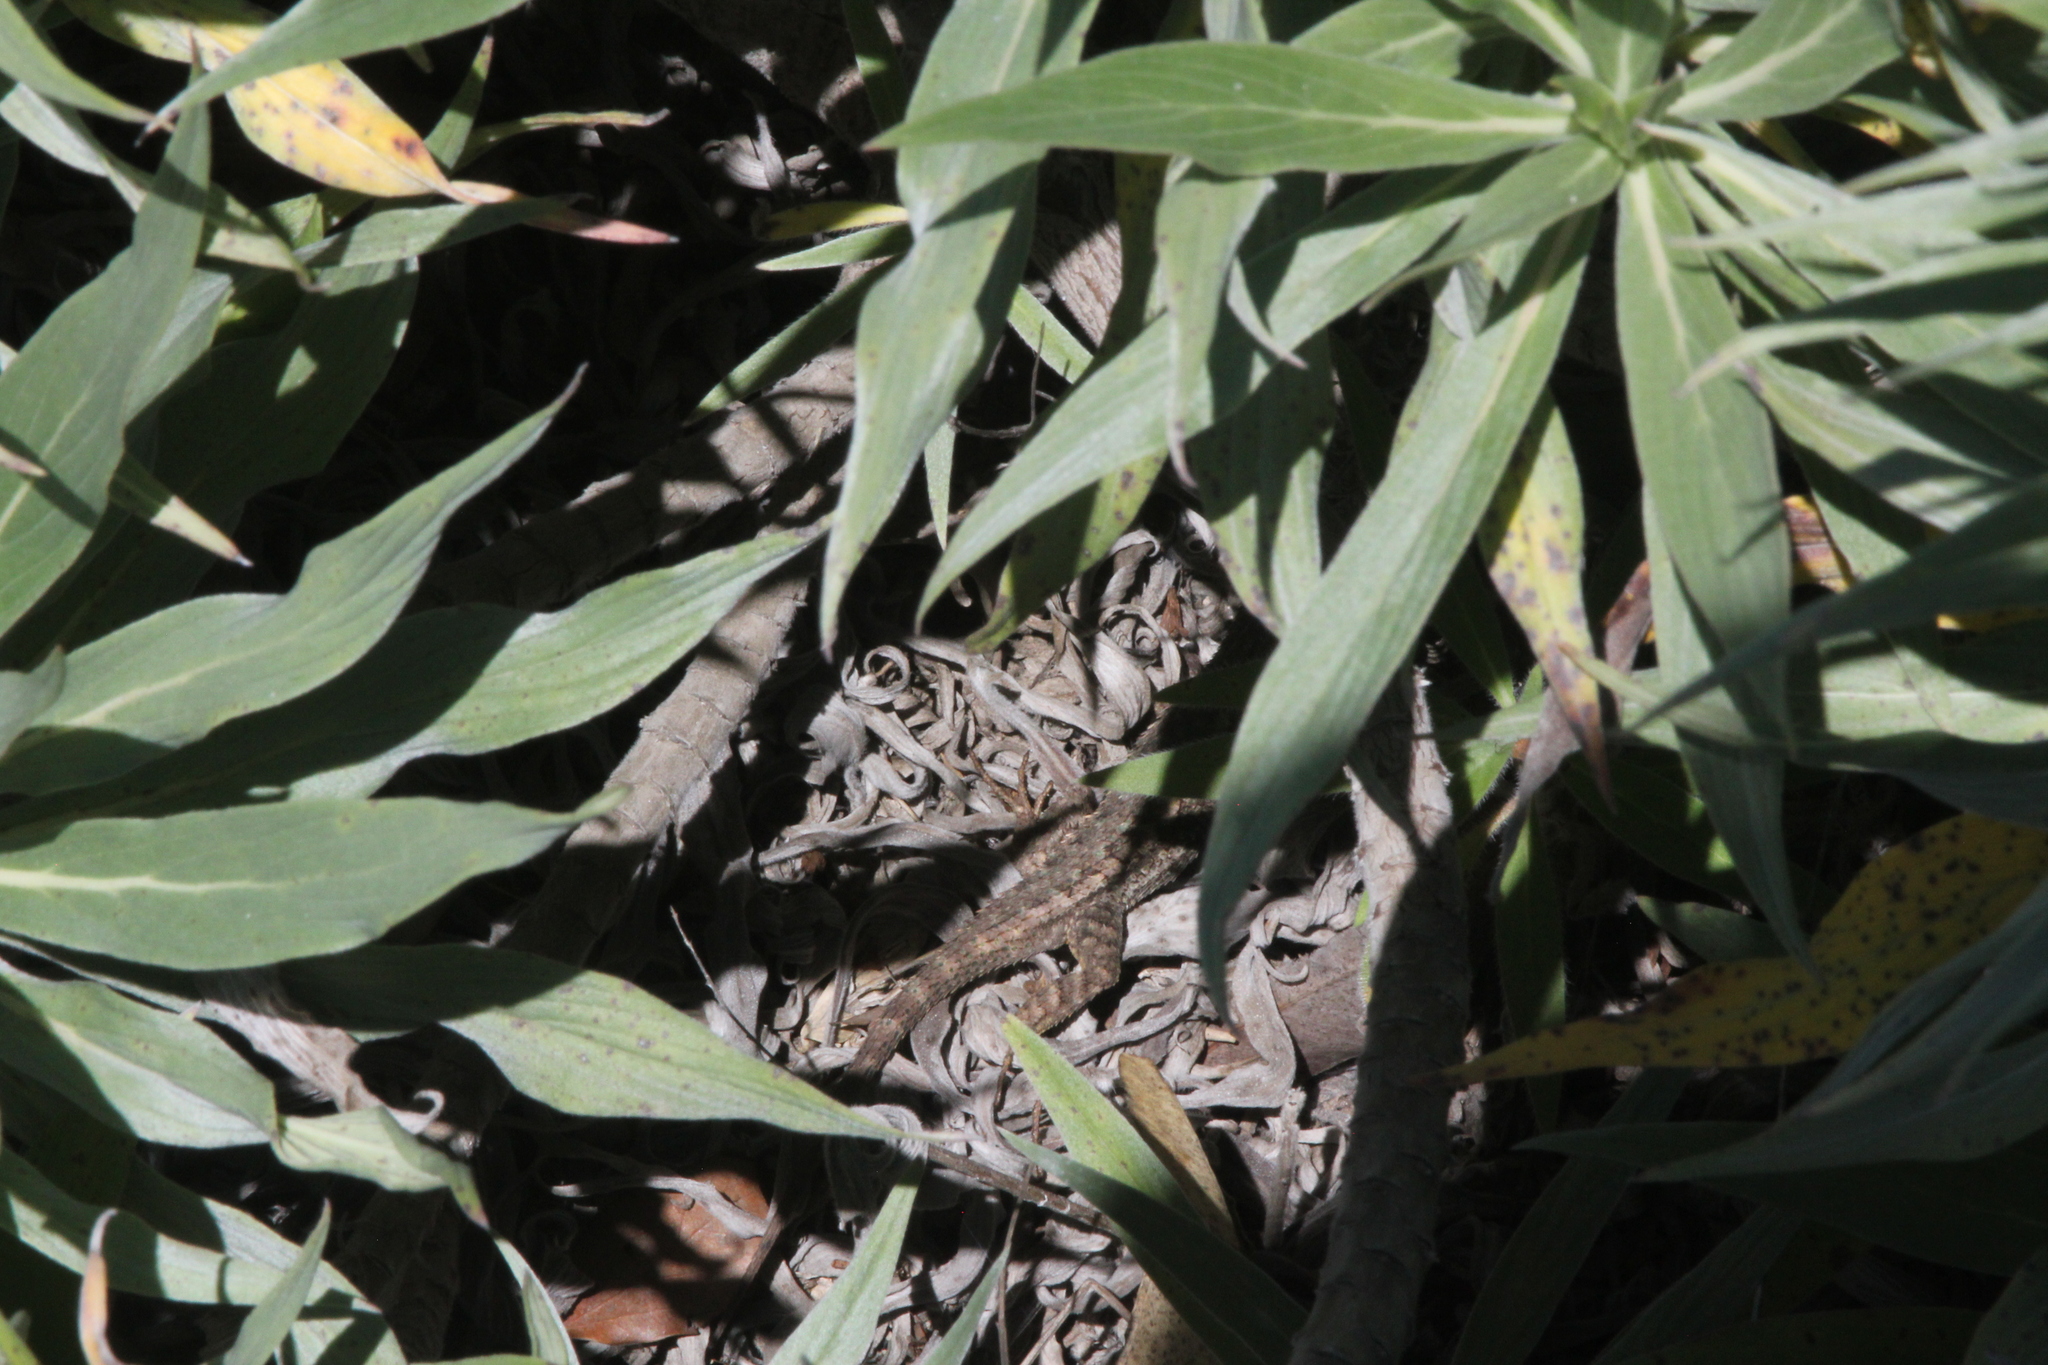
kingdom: Animalia
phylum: Chordata
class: Squamata
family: Phrynosomatidae
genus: Sceloporus
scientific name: Sceloporus occidentalis
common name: Western fence lizard
